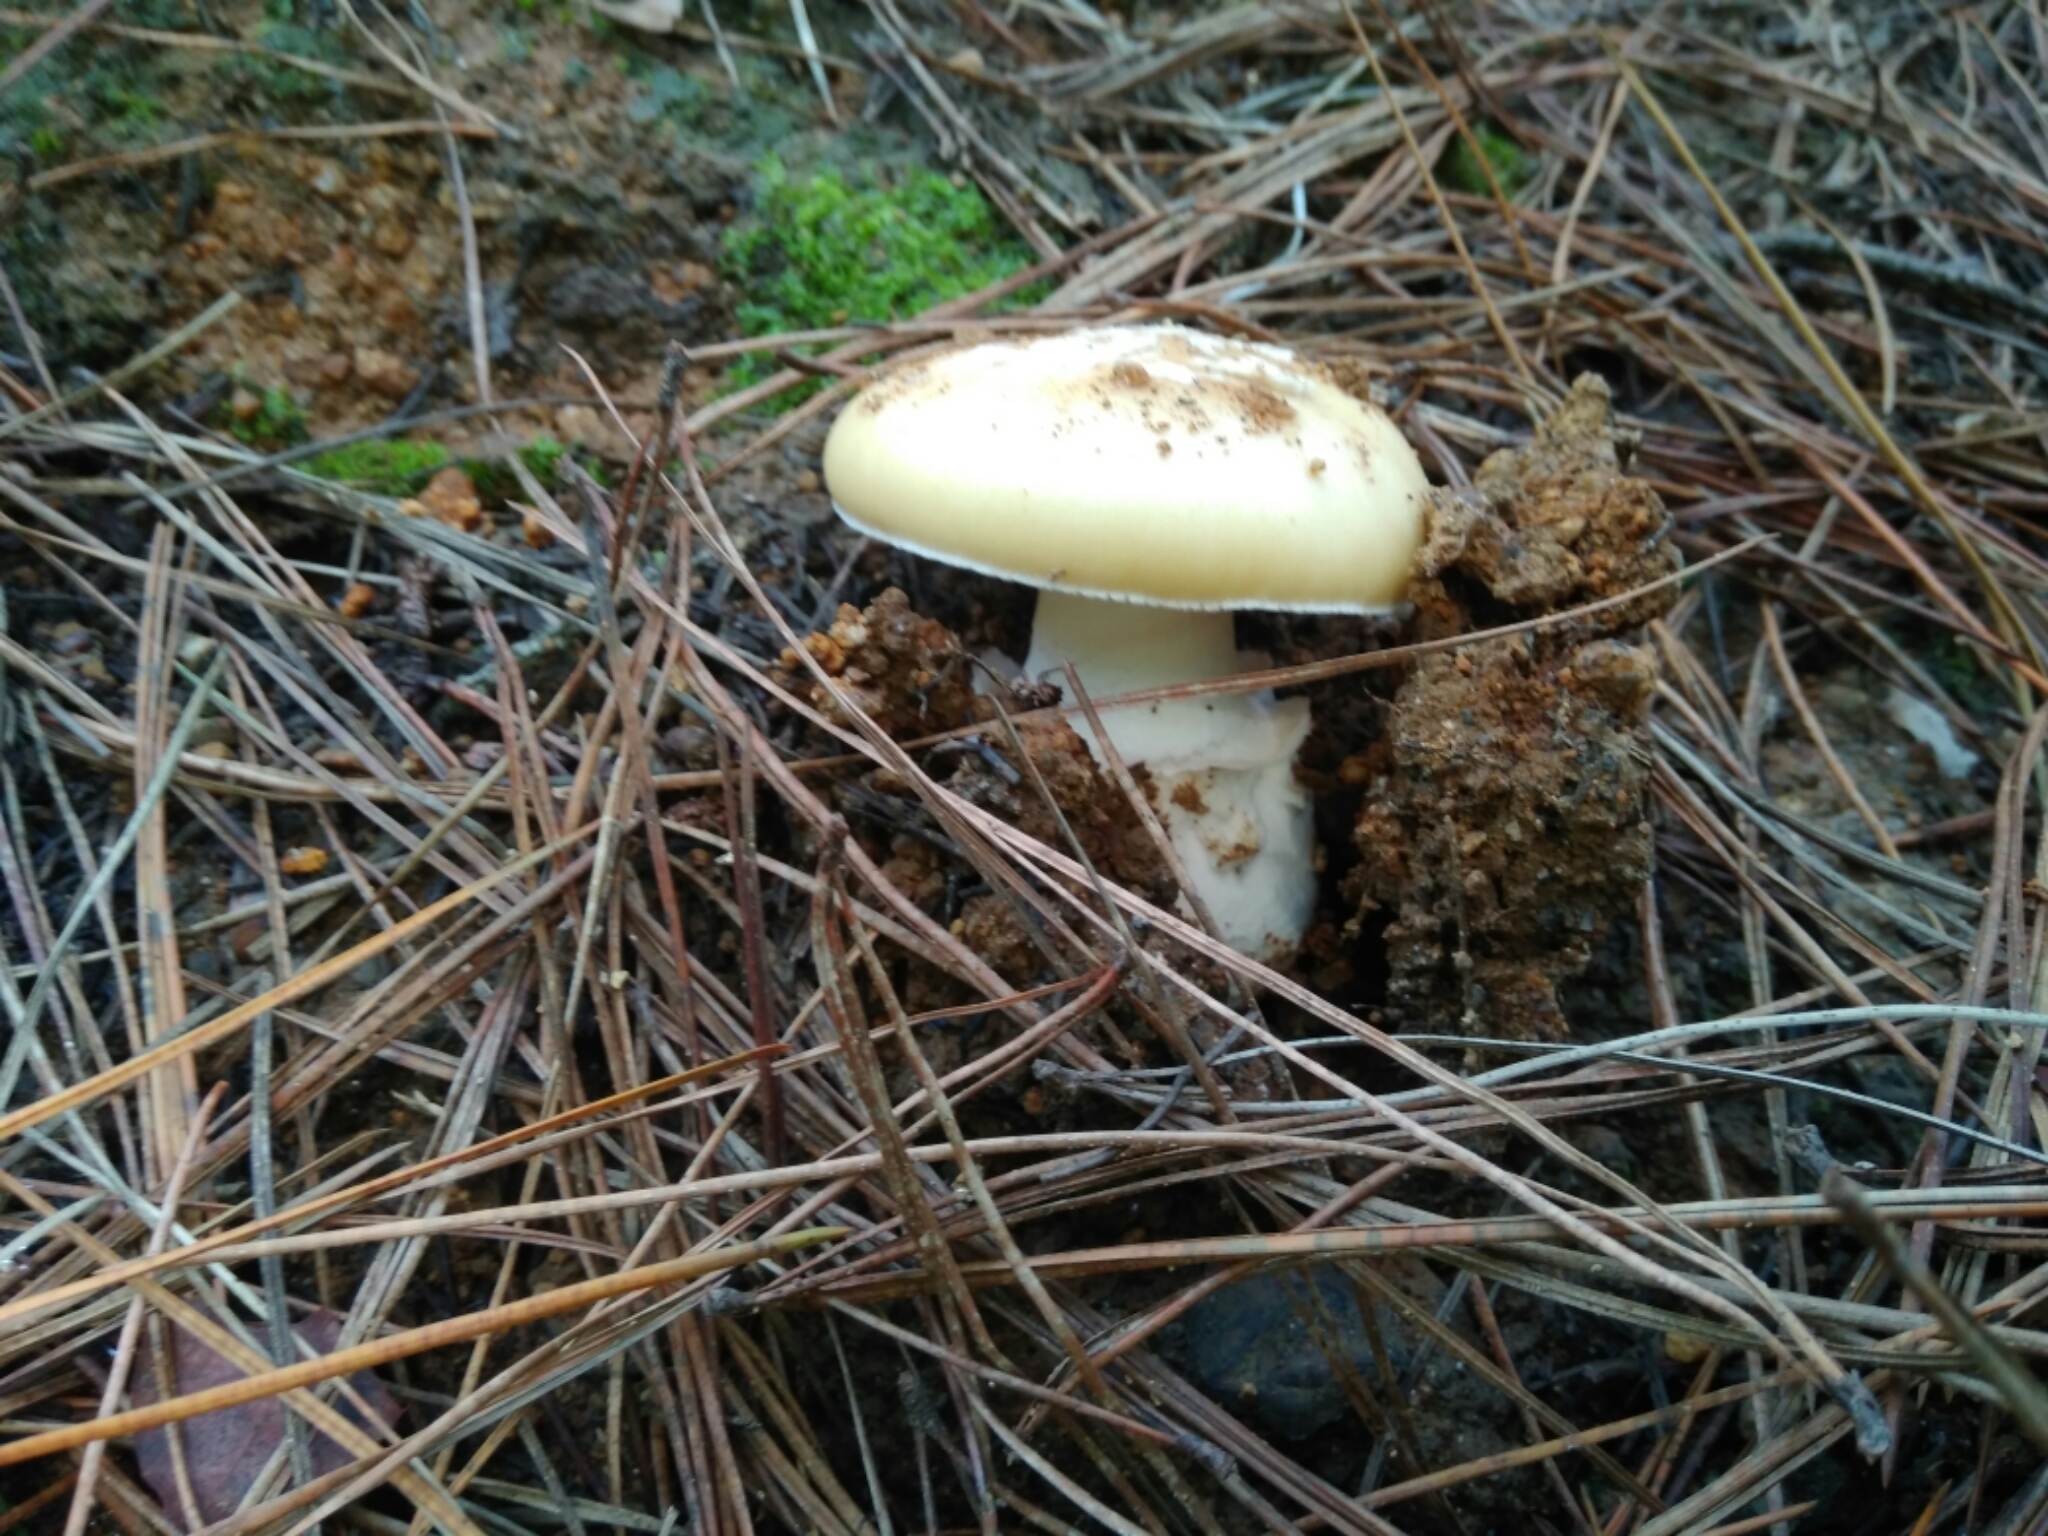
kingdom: Fungi
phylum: Basidiomycota
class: Agaricomycetes
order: Agaricales
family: Amanitaceae
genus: Amanita
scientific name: Amanita toxica
